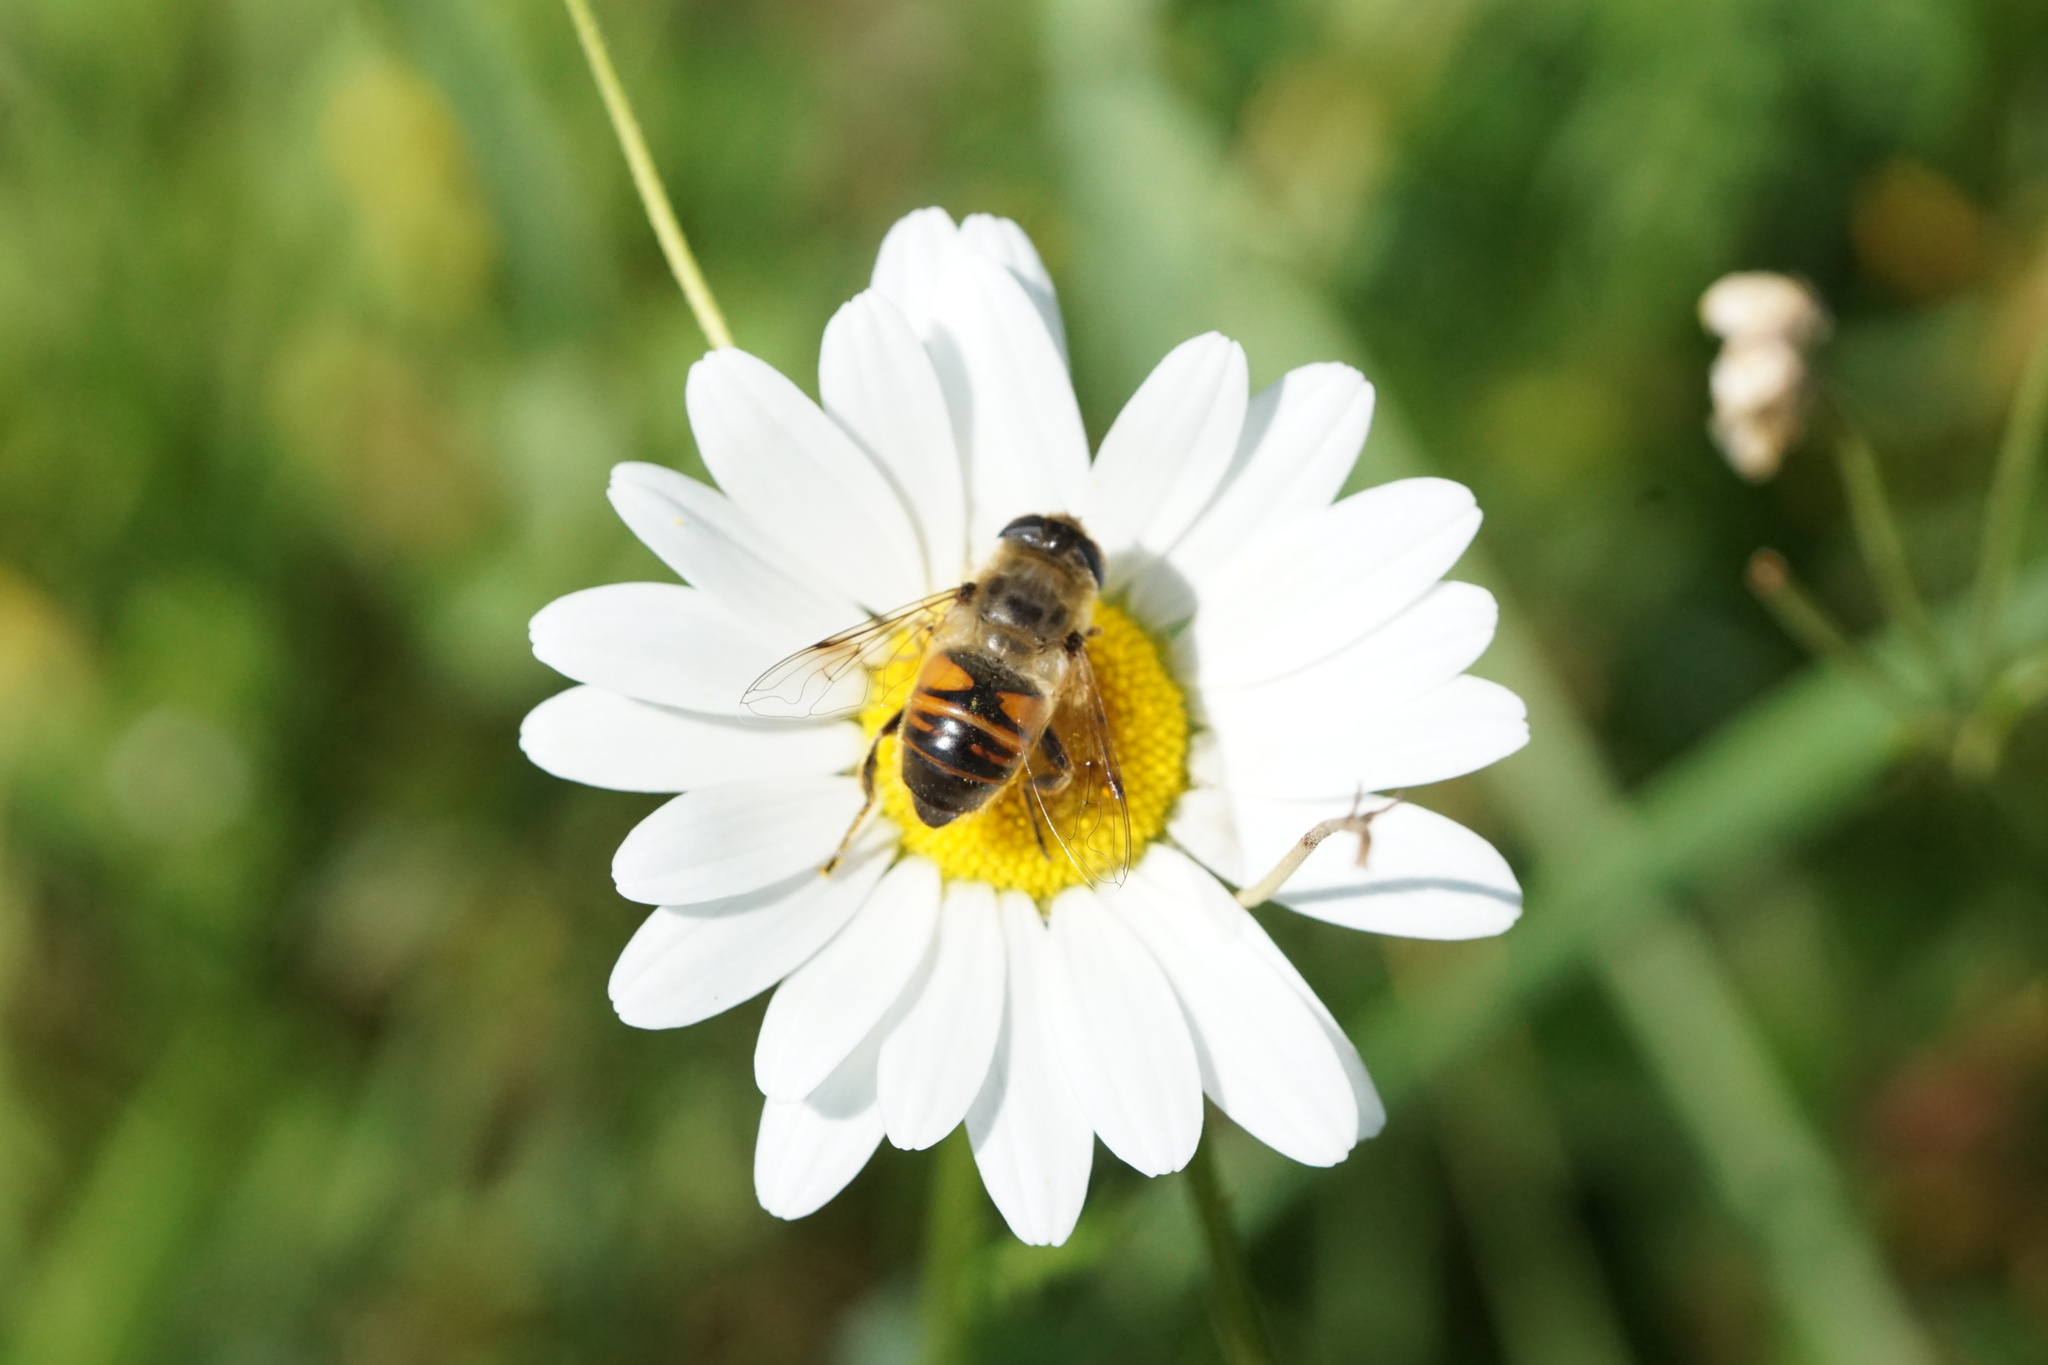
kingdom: Animalia
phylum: Arthropoda
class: Insecta
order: Diptera
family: Syrphidae
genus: Eristalis
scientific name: Eristalis tenax
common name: Drone fly
